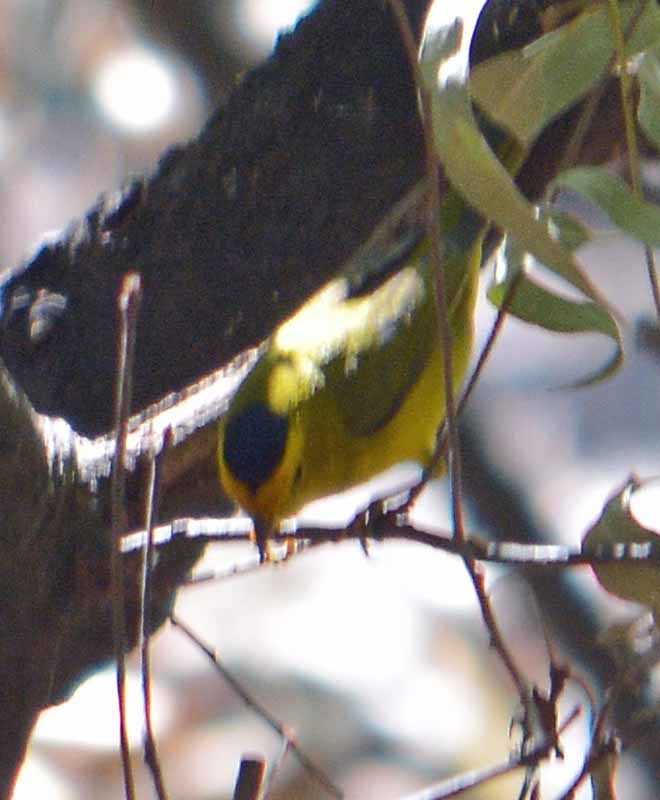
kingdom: Animalia
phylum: Chordata
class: Aves
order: Passeriformes
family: Parulidae
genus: Cardellina
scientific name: Cardellina pusilla
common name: Wilson's warbler
